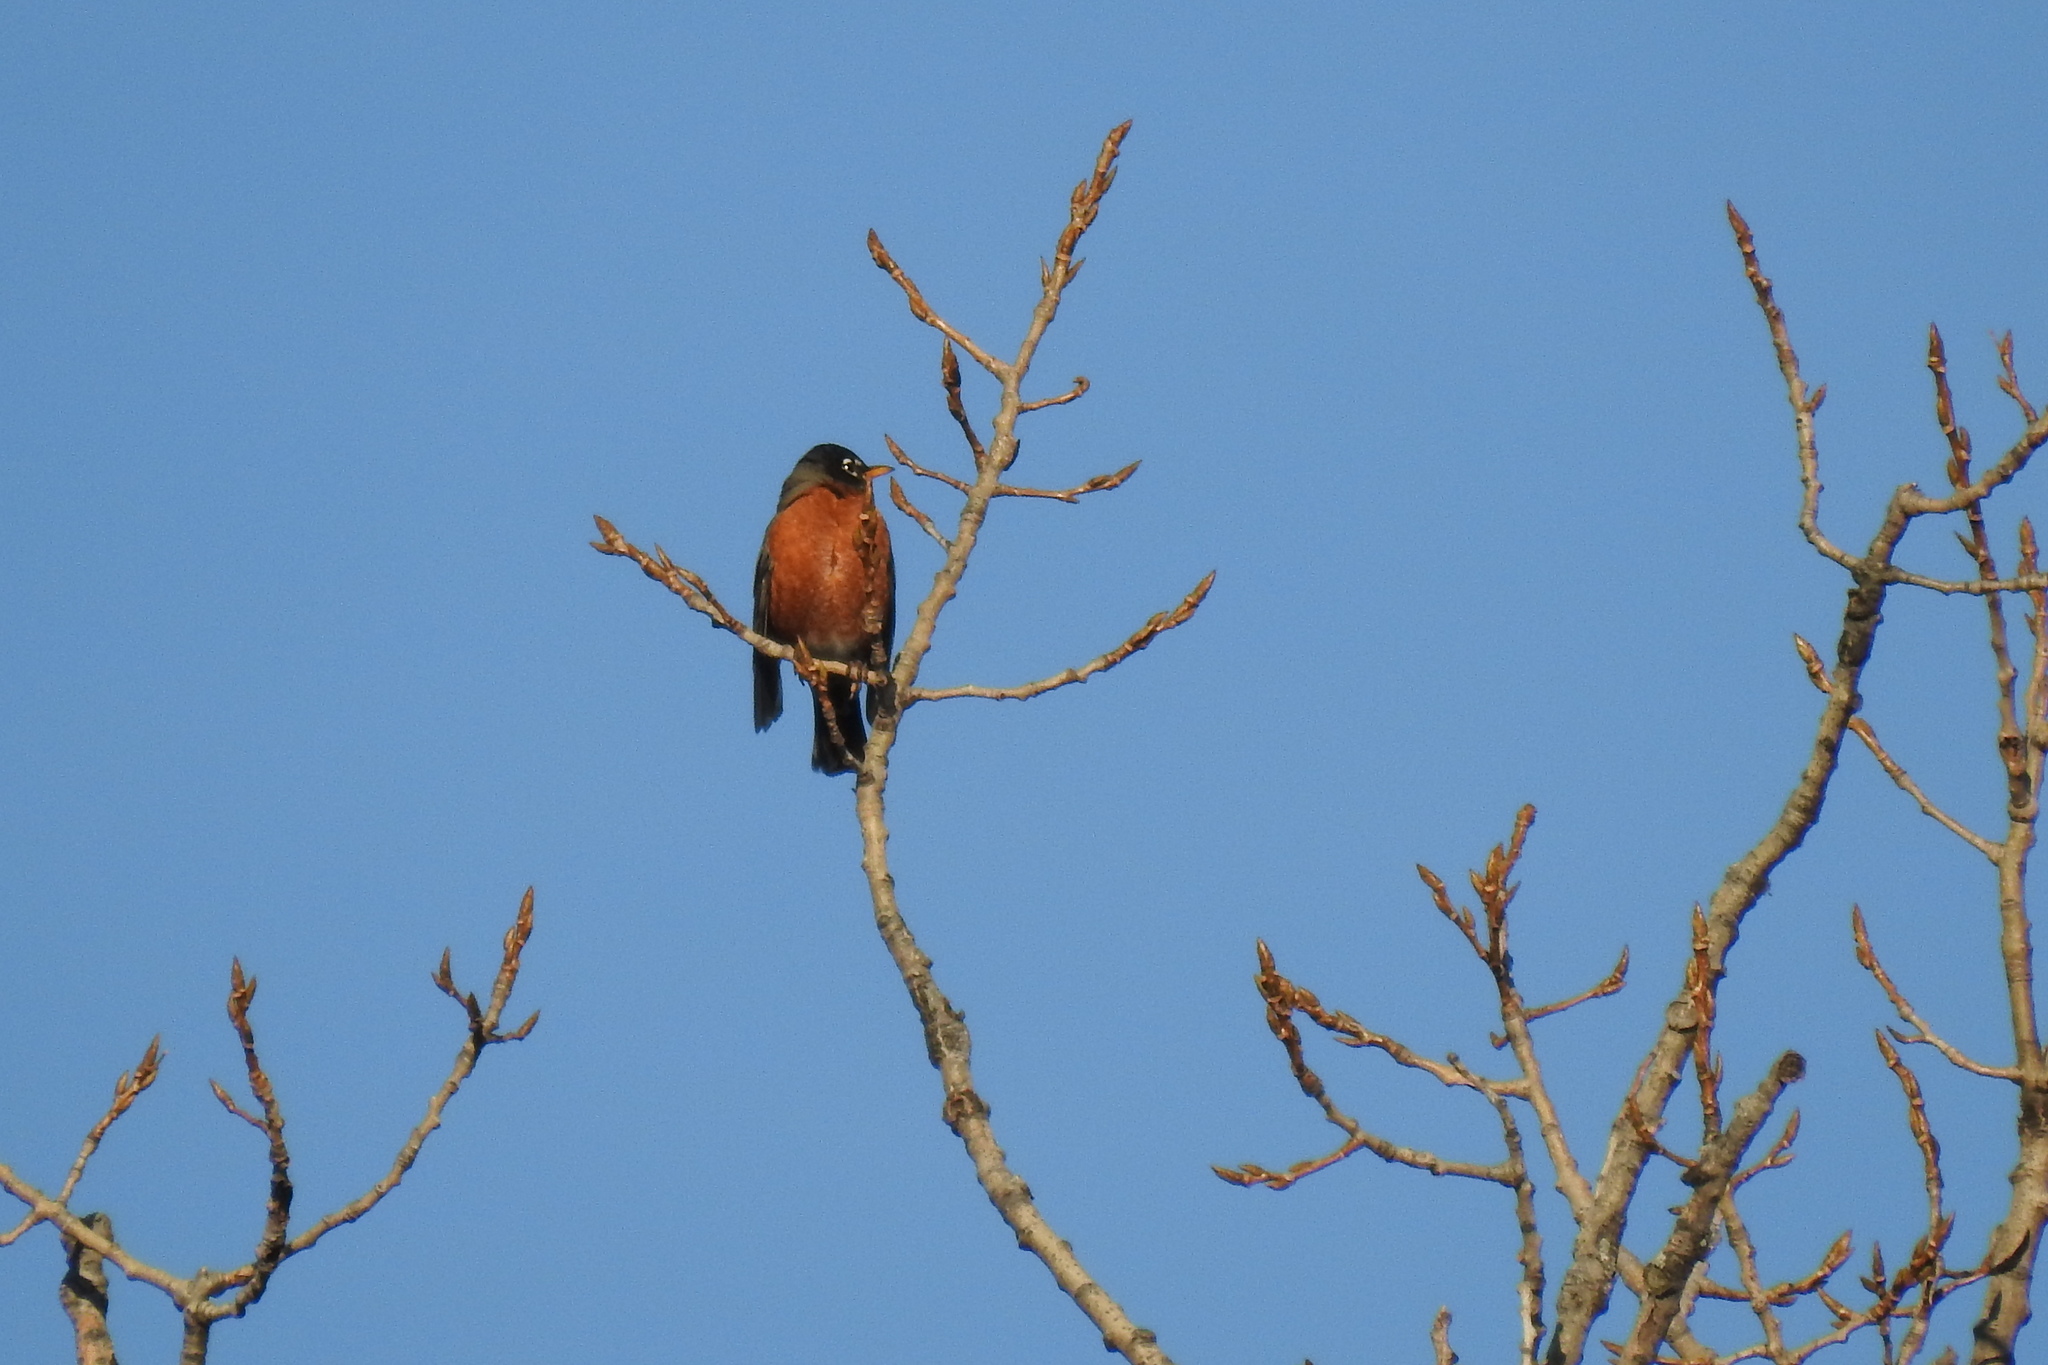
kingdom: Animalia
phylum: Chordata
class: Aves
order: Passeriformes
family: Turdidae
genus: Turdus
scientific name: Turdus migratorius
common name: American robin
